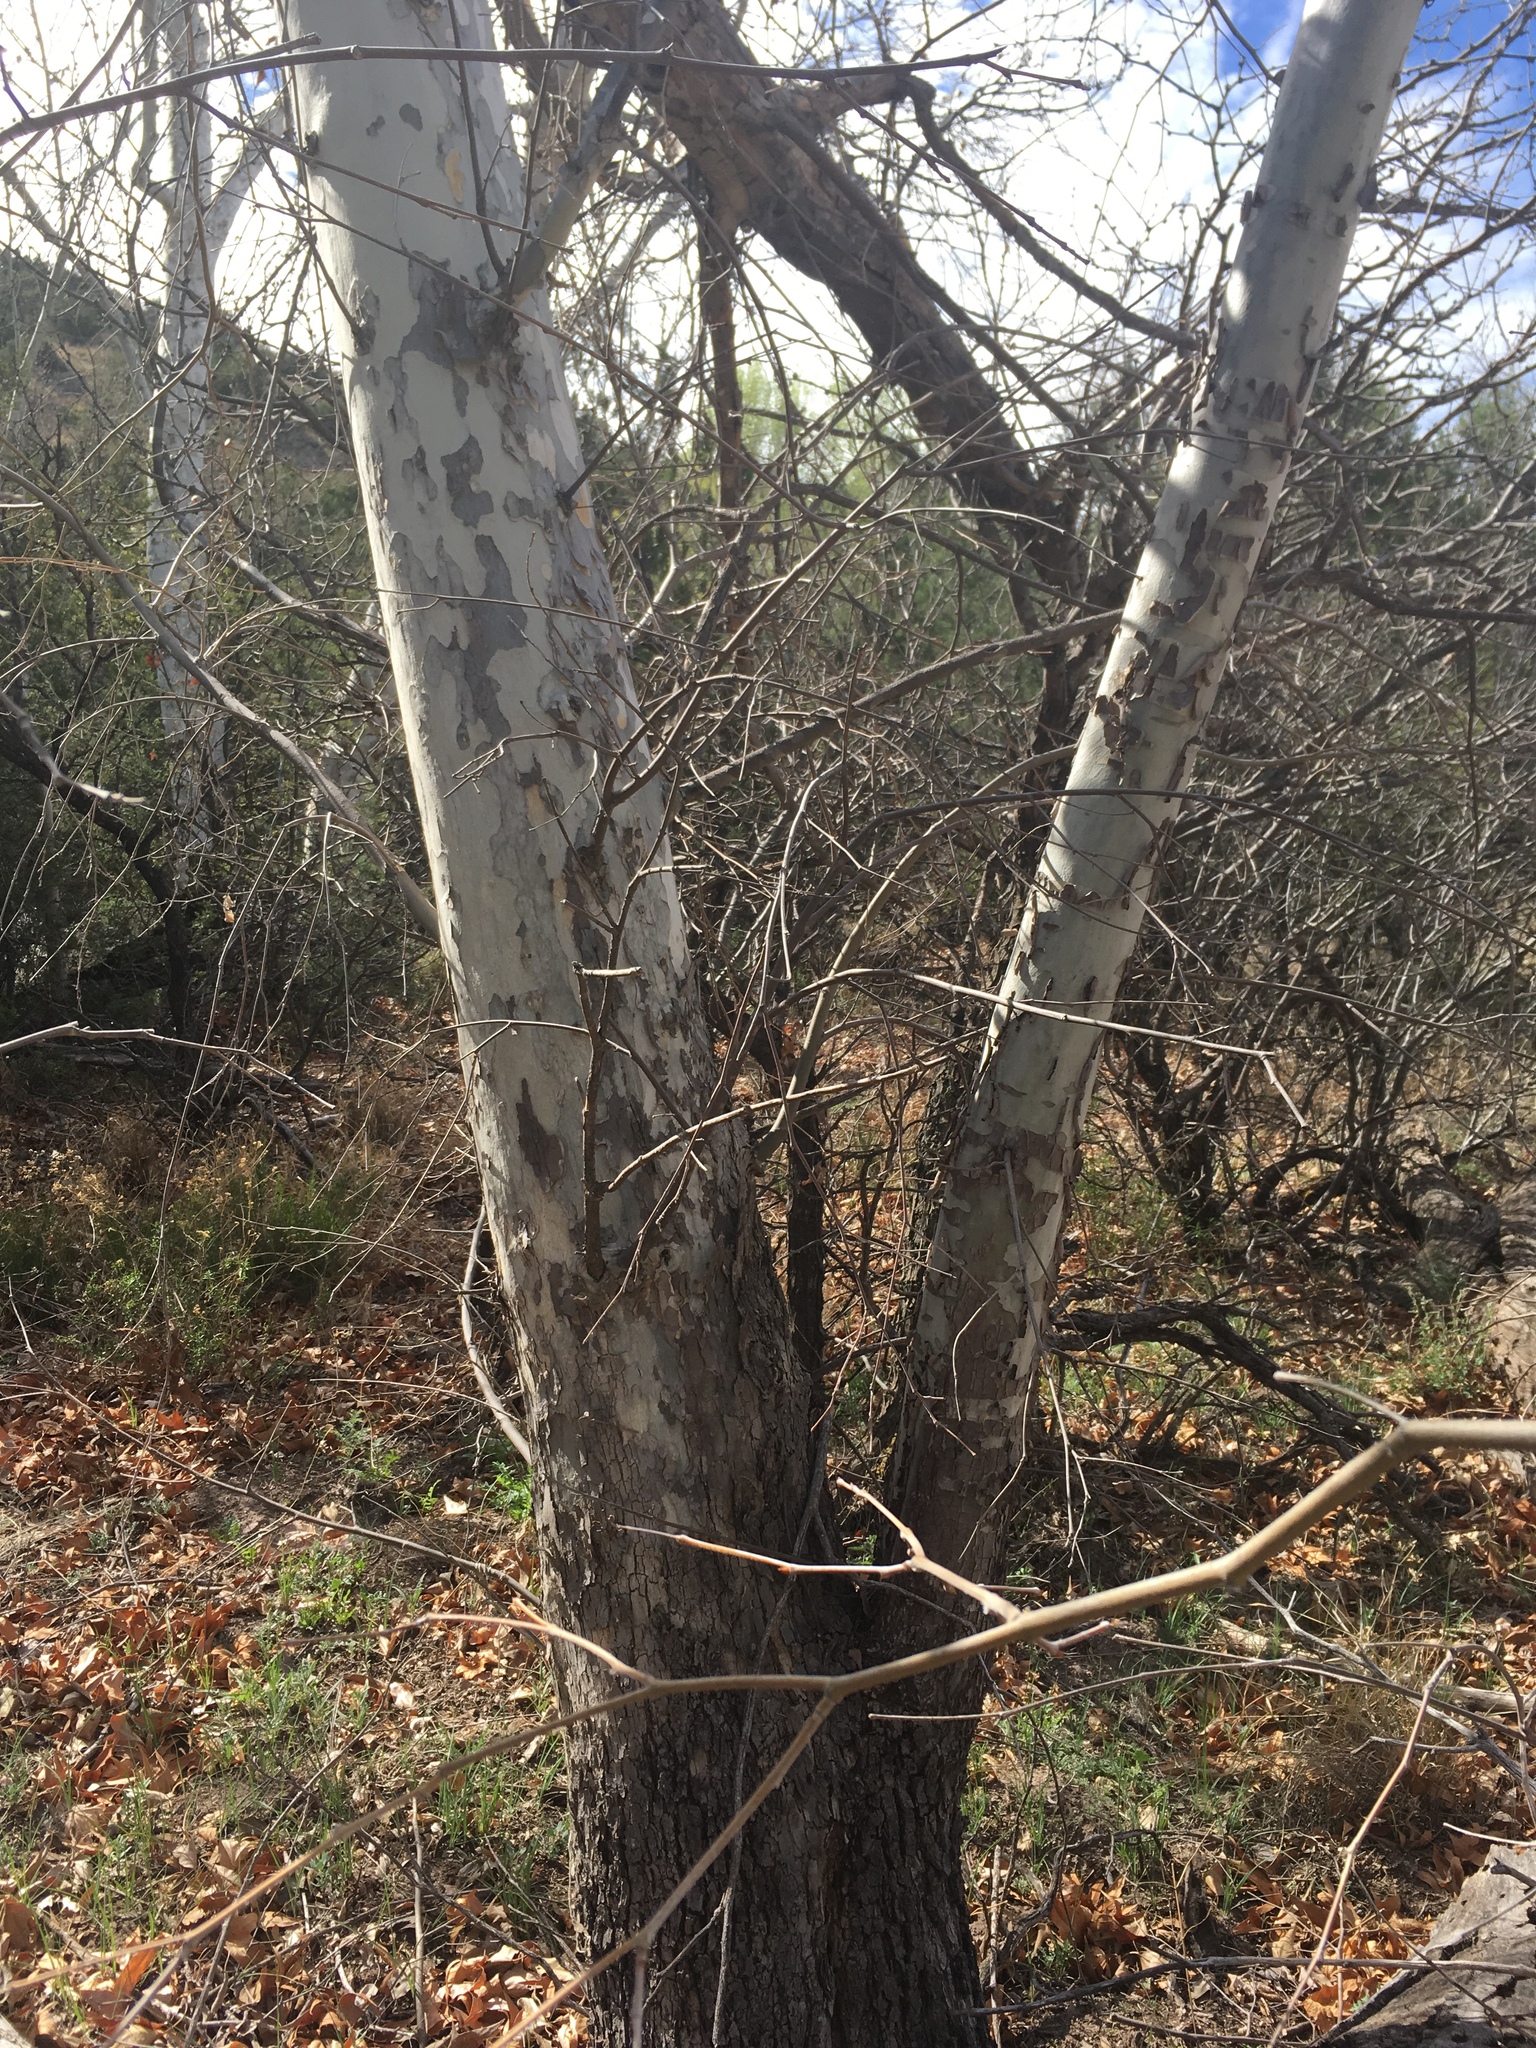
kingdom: Plantae
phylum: Tracheophyta
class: Magnoliopsida
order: Proteales
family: Platanaceae
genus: Platanus
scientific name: Platanus wrightii
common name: Arizona sycamore
